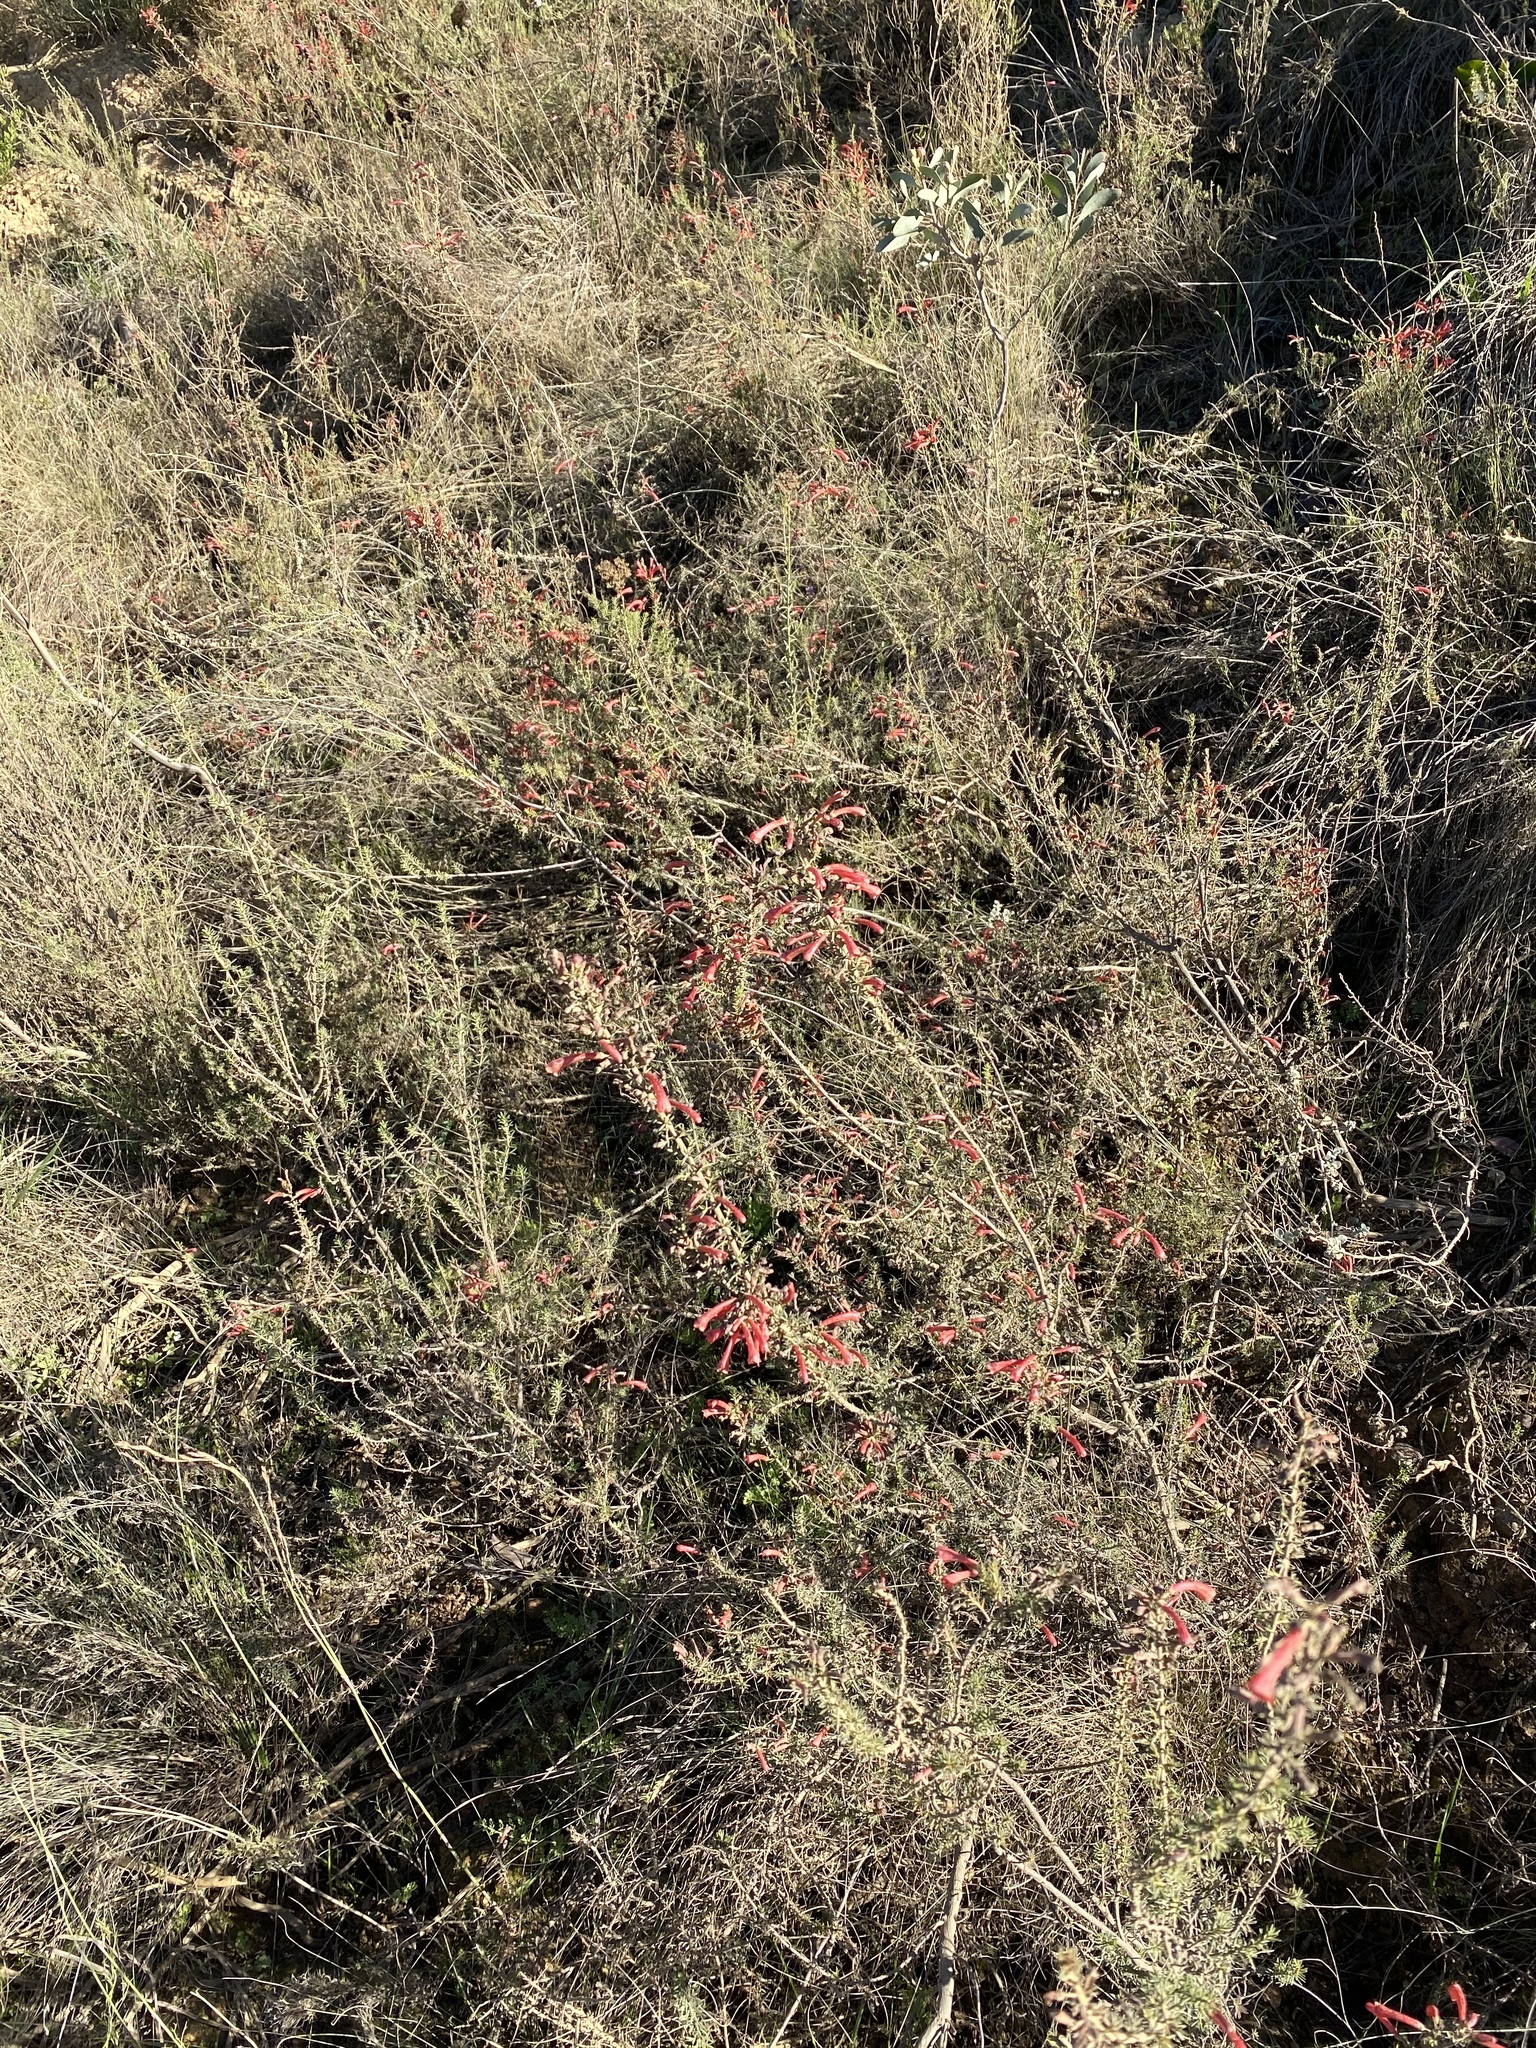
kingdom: Plantae
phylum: Tracheophyta
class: Magnoliopsida
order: Ericales
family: Ericaceae
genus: Erica
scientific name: Erica cruenta
